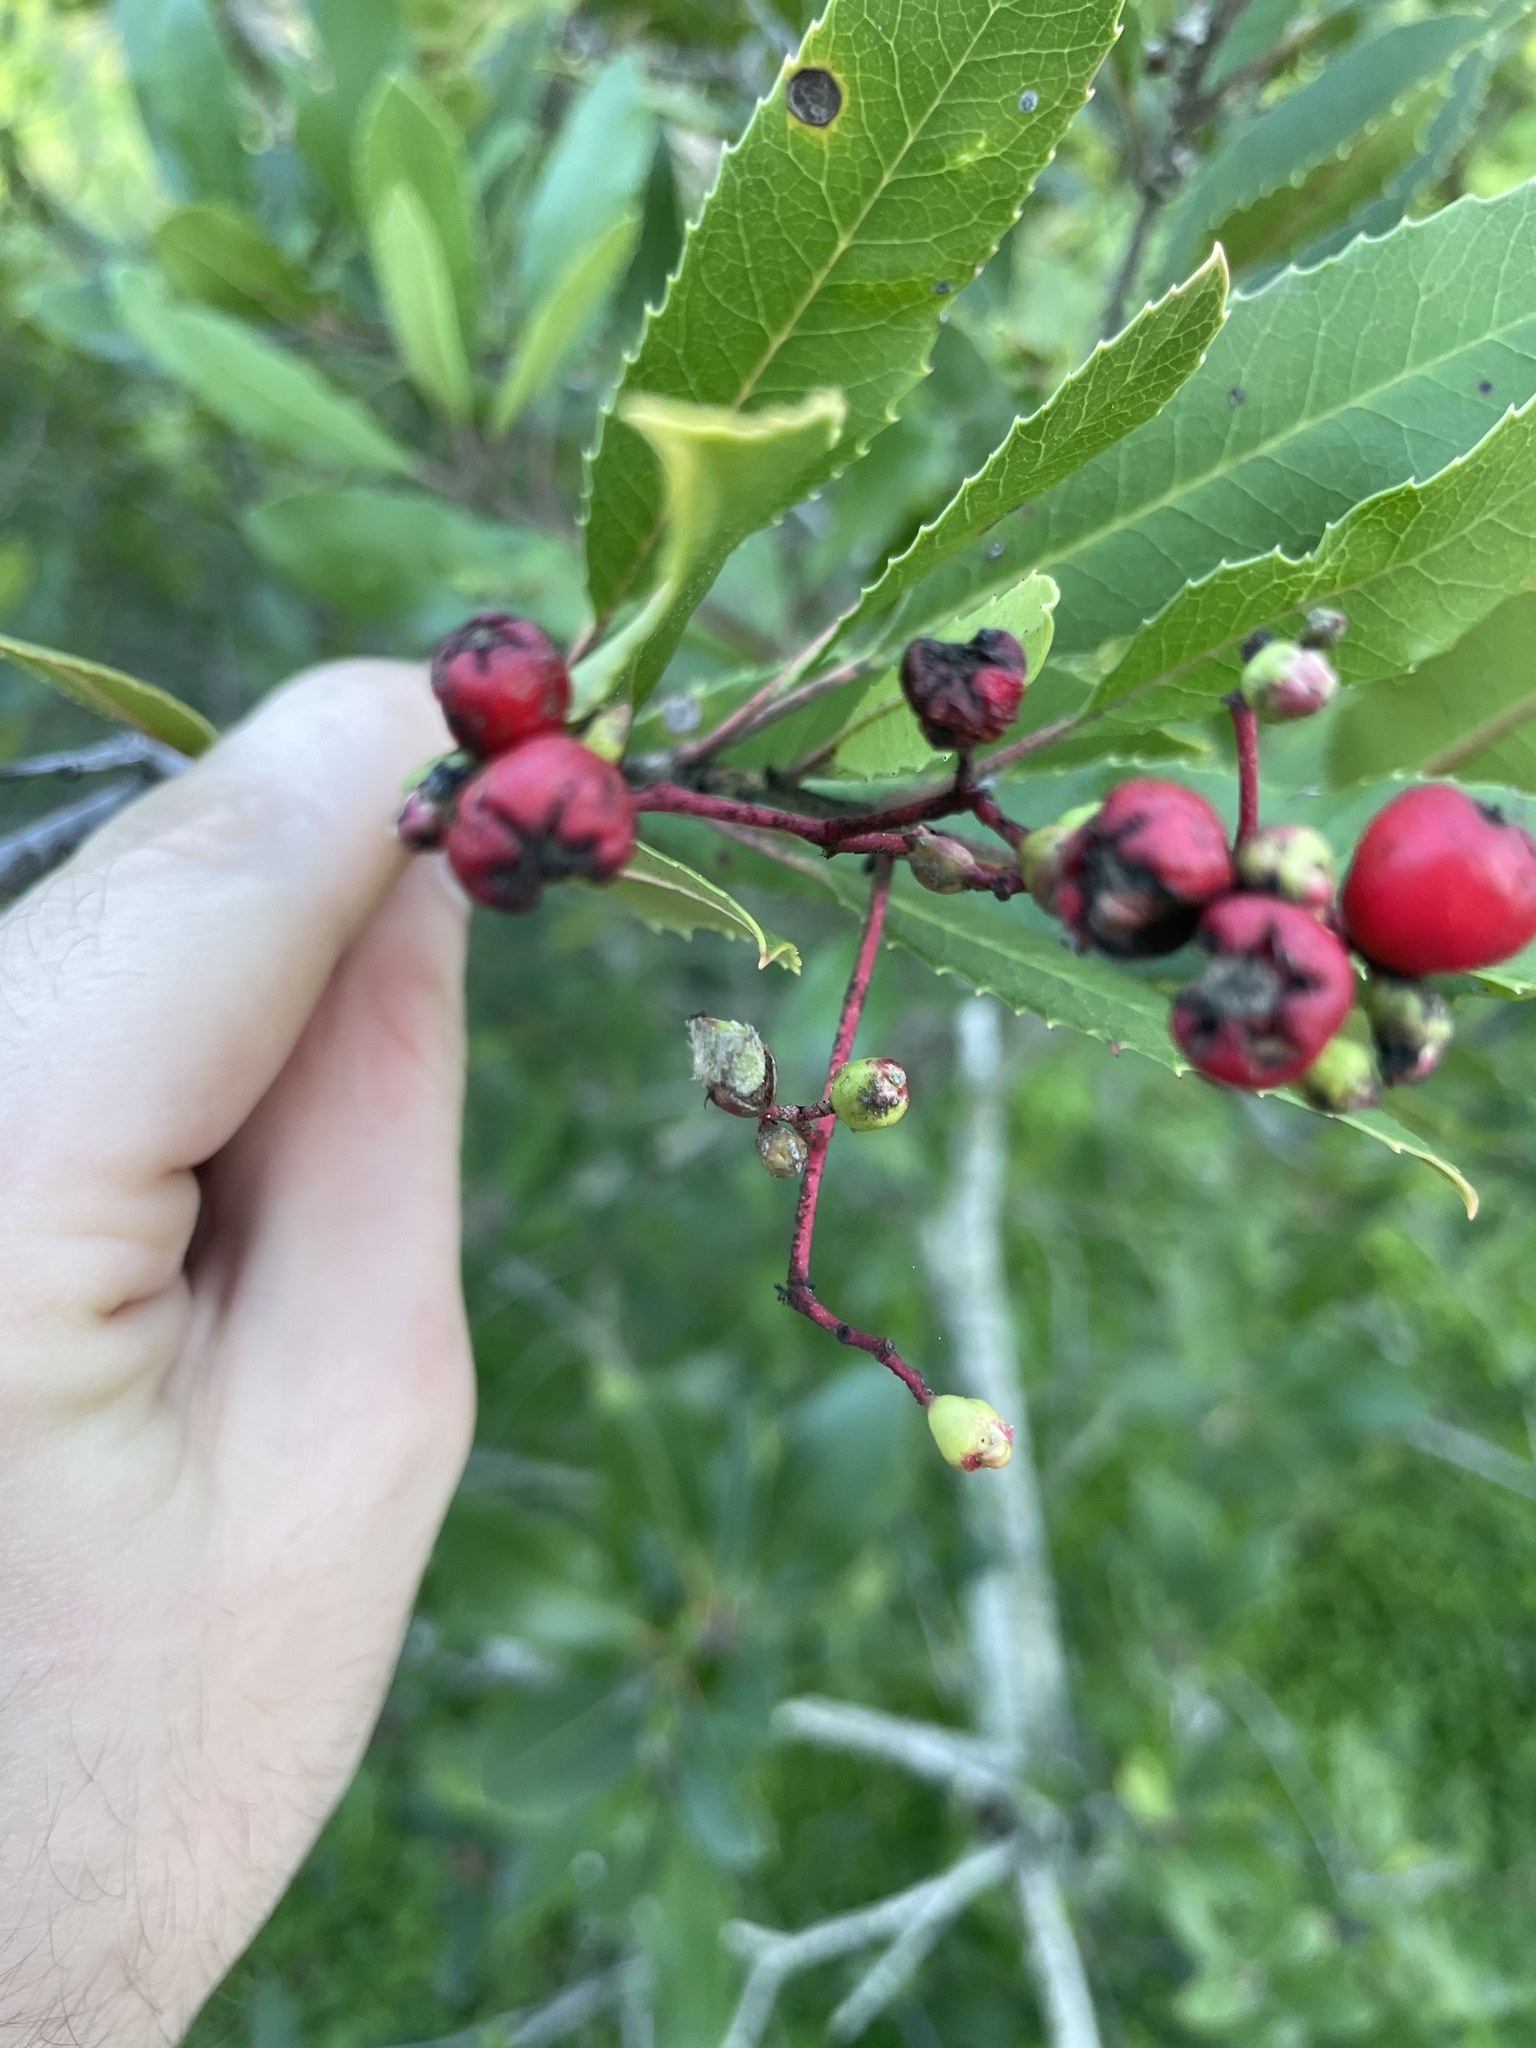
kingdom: Animalia
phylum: Arthropoda
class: Insecta
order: Diptera
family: Cecidomyiidae
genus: Asphondylia
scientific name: Asphondylia photiniae
